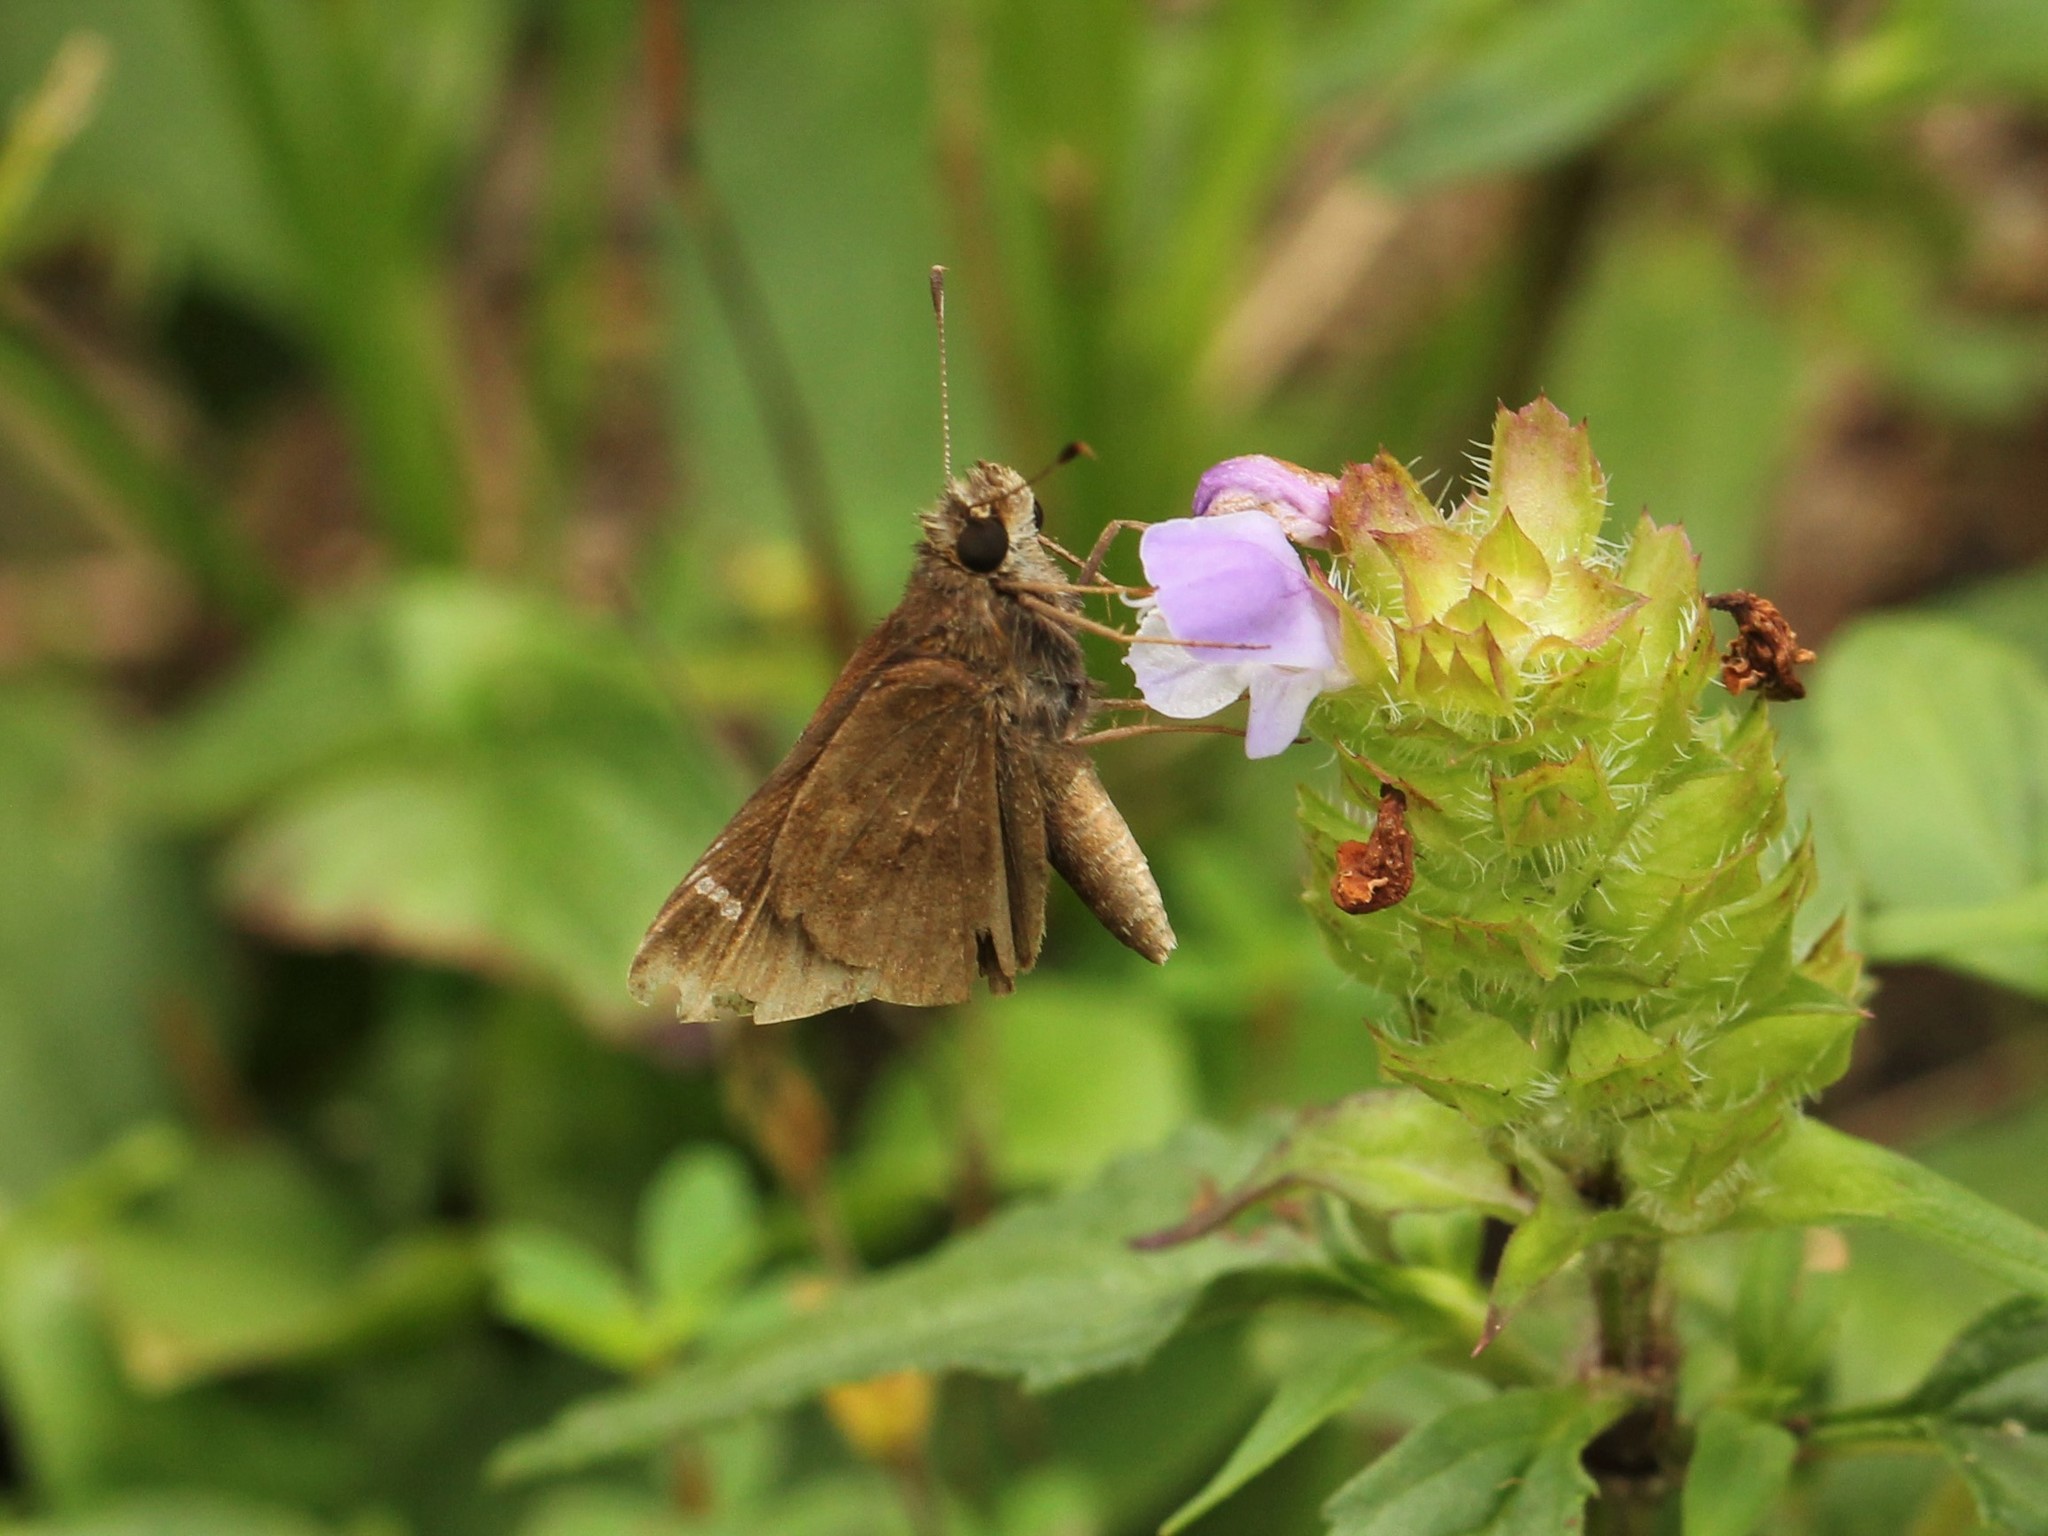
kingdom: Animalia
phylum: Arthropoda
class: Insecta
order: Lepidoptera
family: Hesperiidae
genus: Lerema
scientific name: Lerema accius
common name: Clouded skipper
